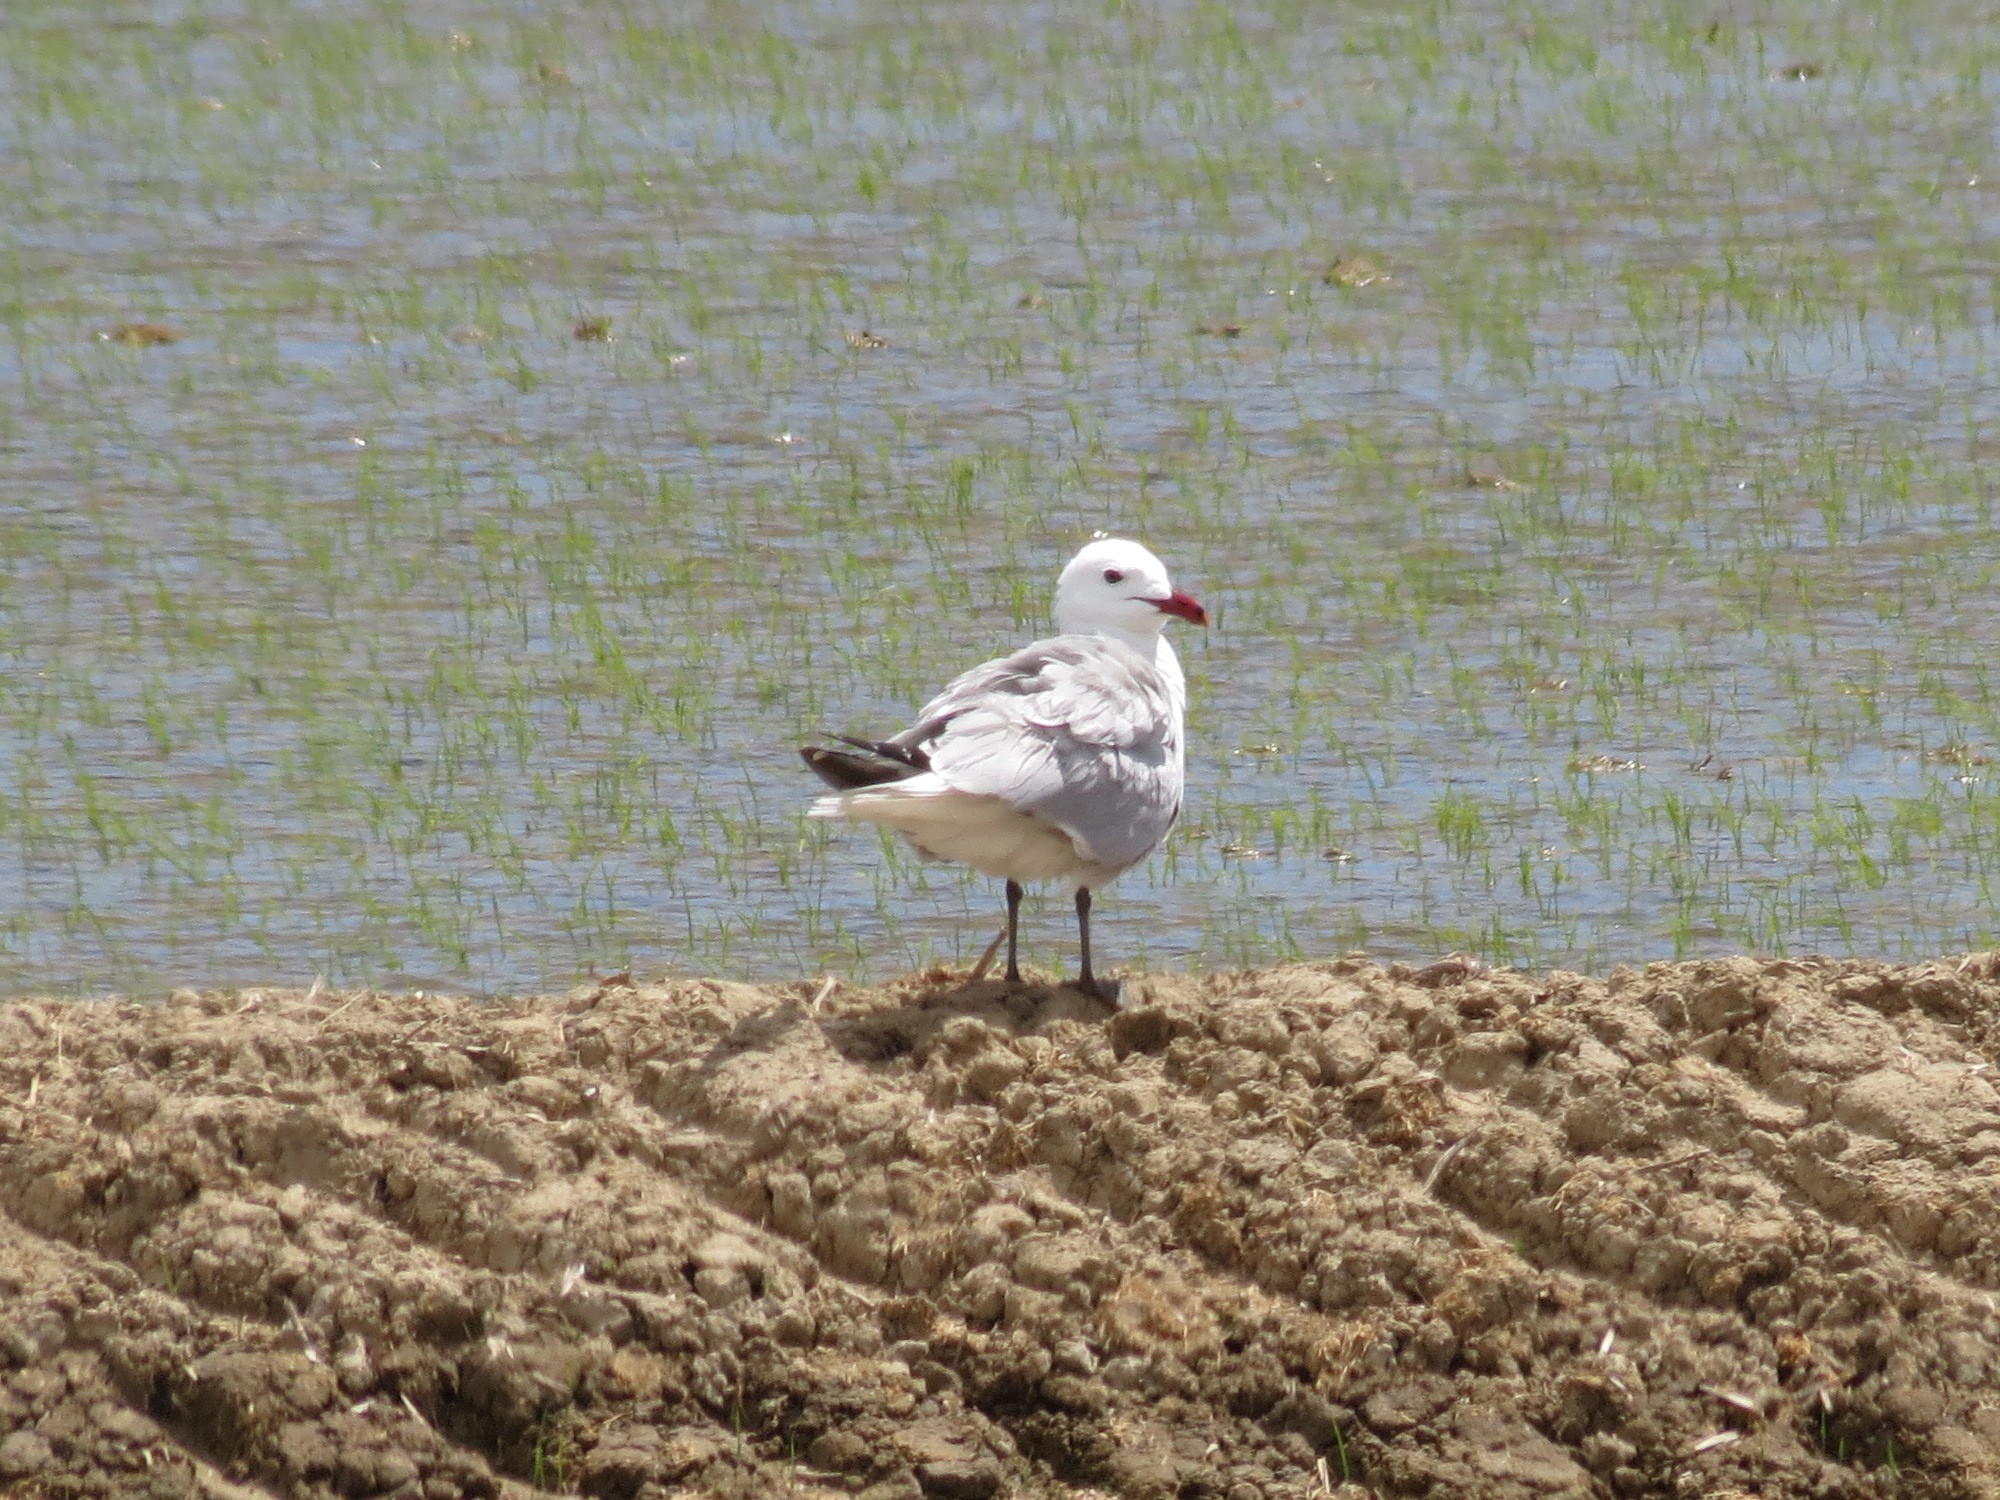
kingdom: Animalia
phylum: Chordata
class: Aves
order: Charadriiformes
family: Laridae
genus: Ichthyaetus
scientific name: Ichthyaetus audouinii
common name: Audouin's gull
